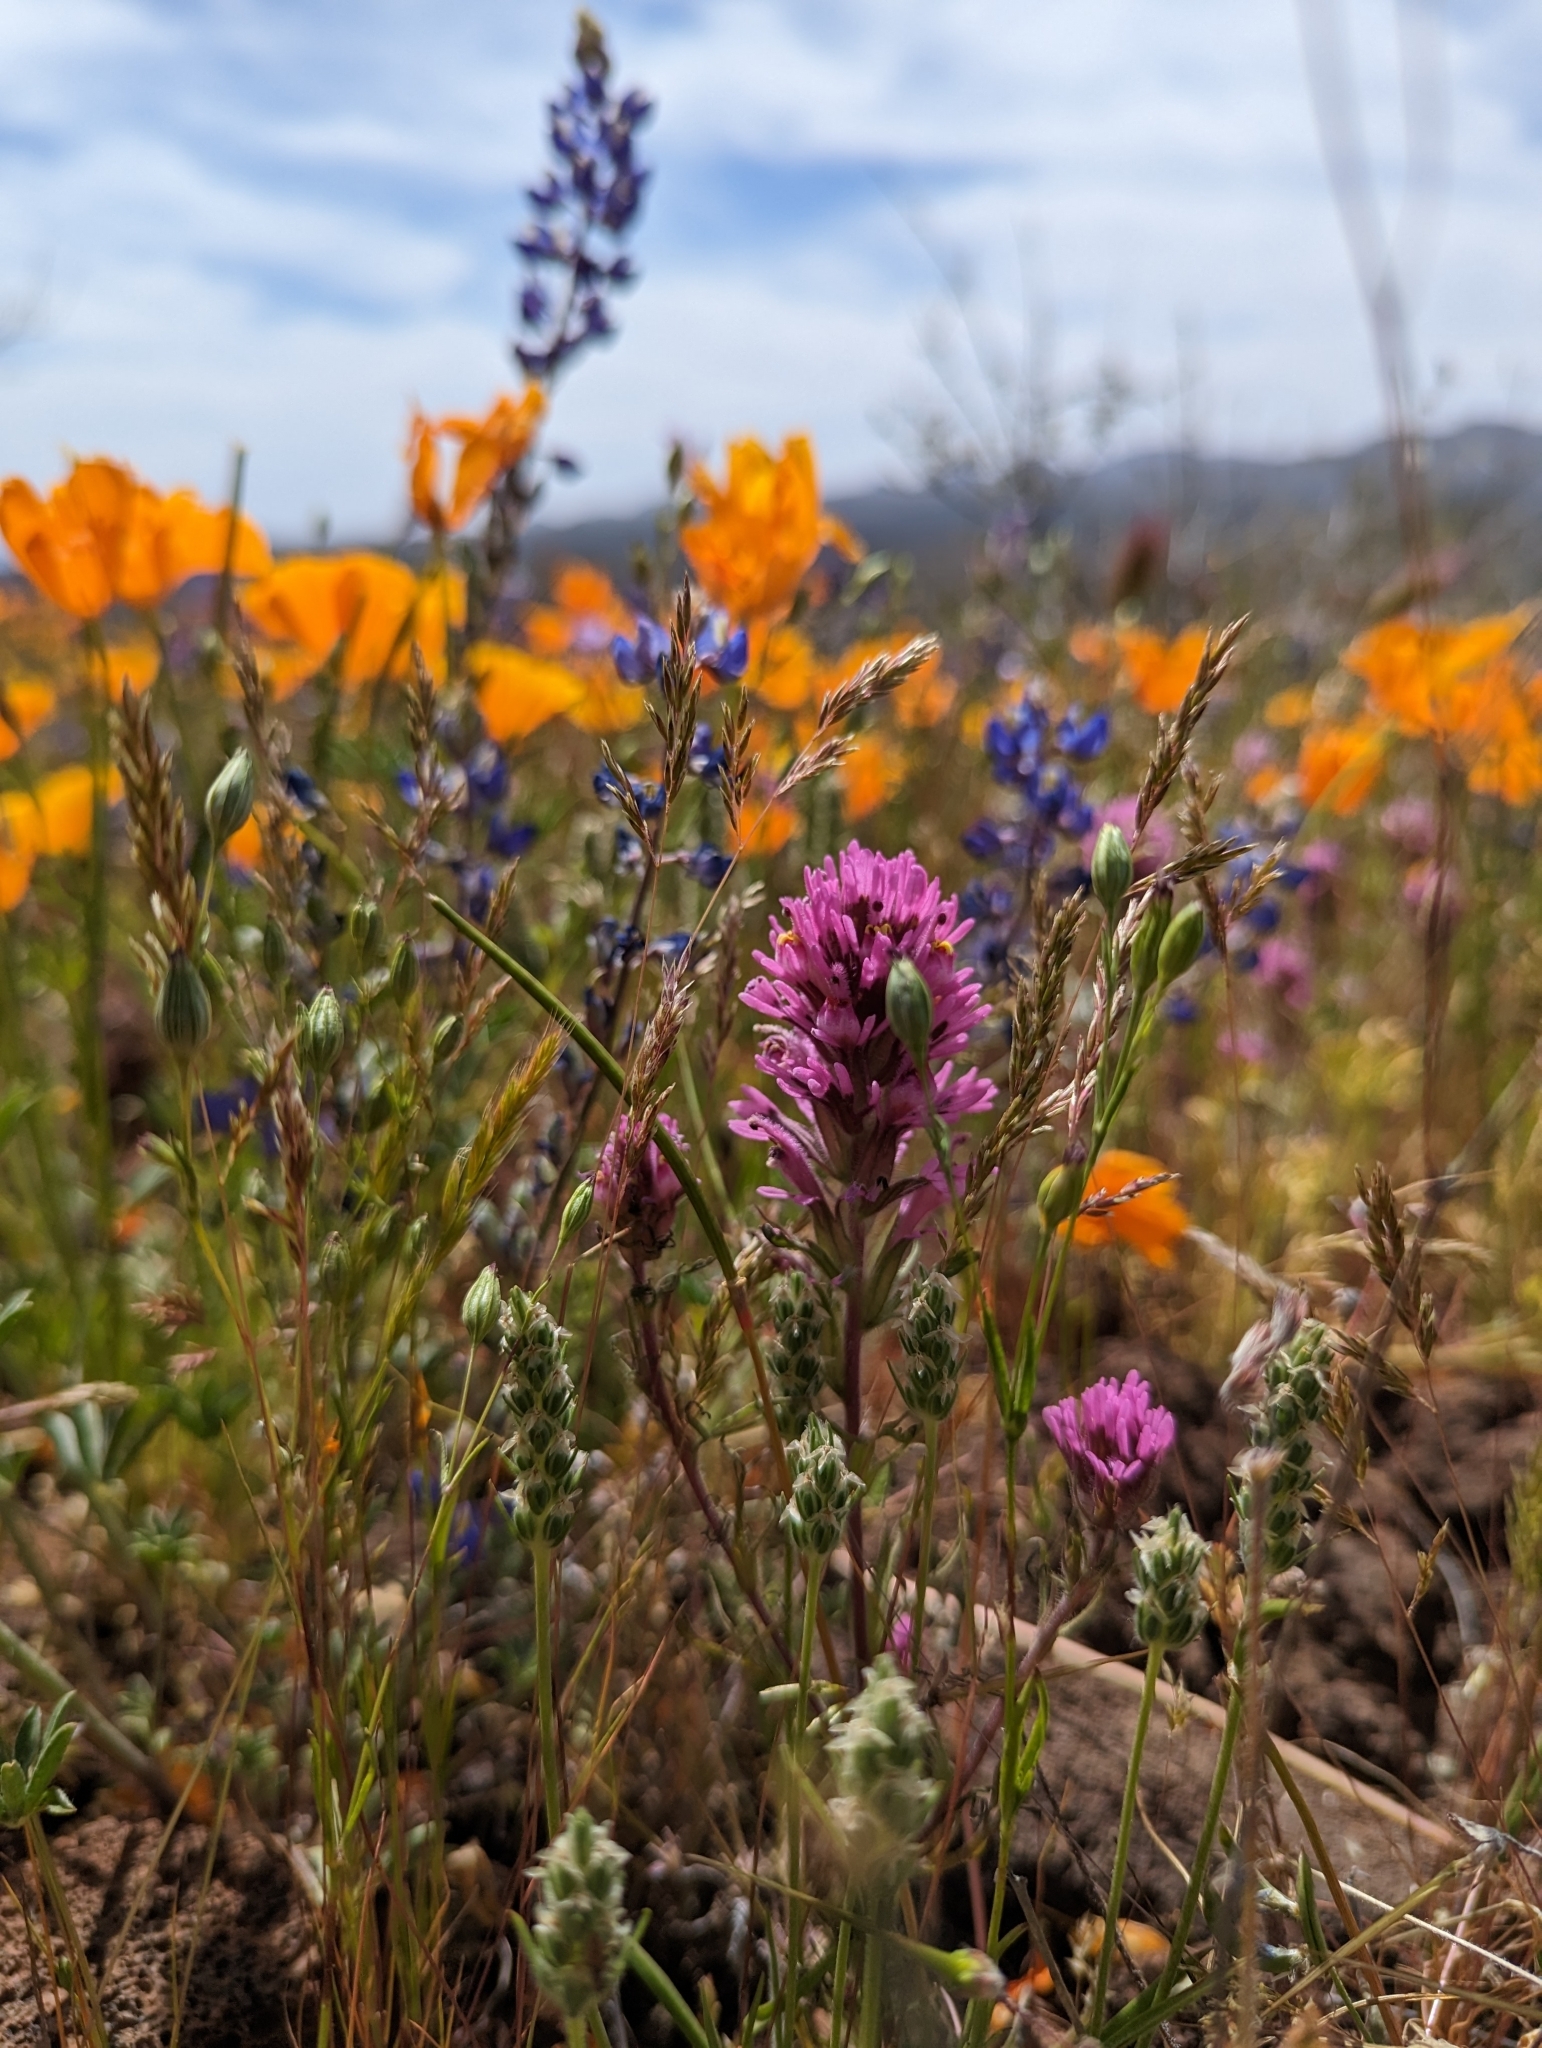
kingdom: Plantae
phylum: Tracheophyta
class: Magnoliopsida
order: Lamiales
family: Orobanchaceae
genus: Castilleja
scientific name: Castilleja exserta
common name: Purple owl-clover
